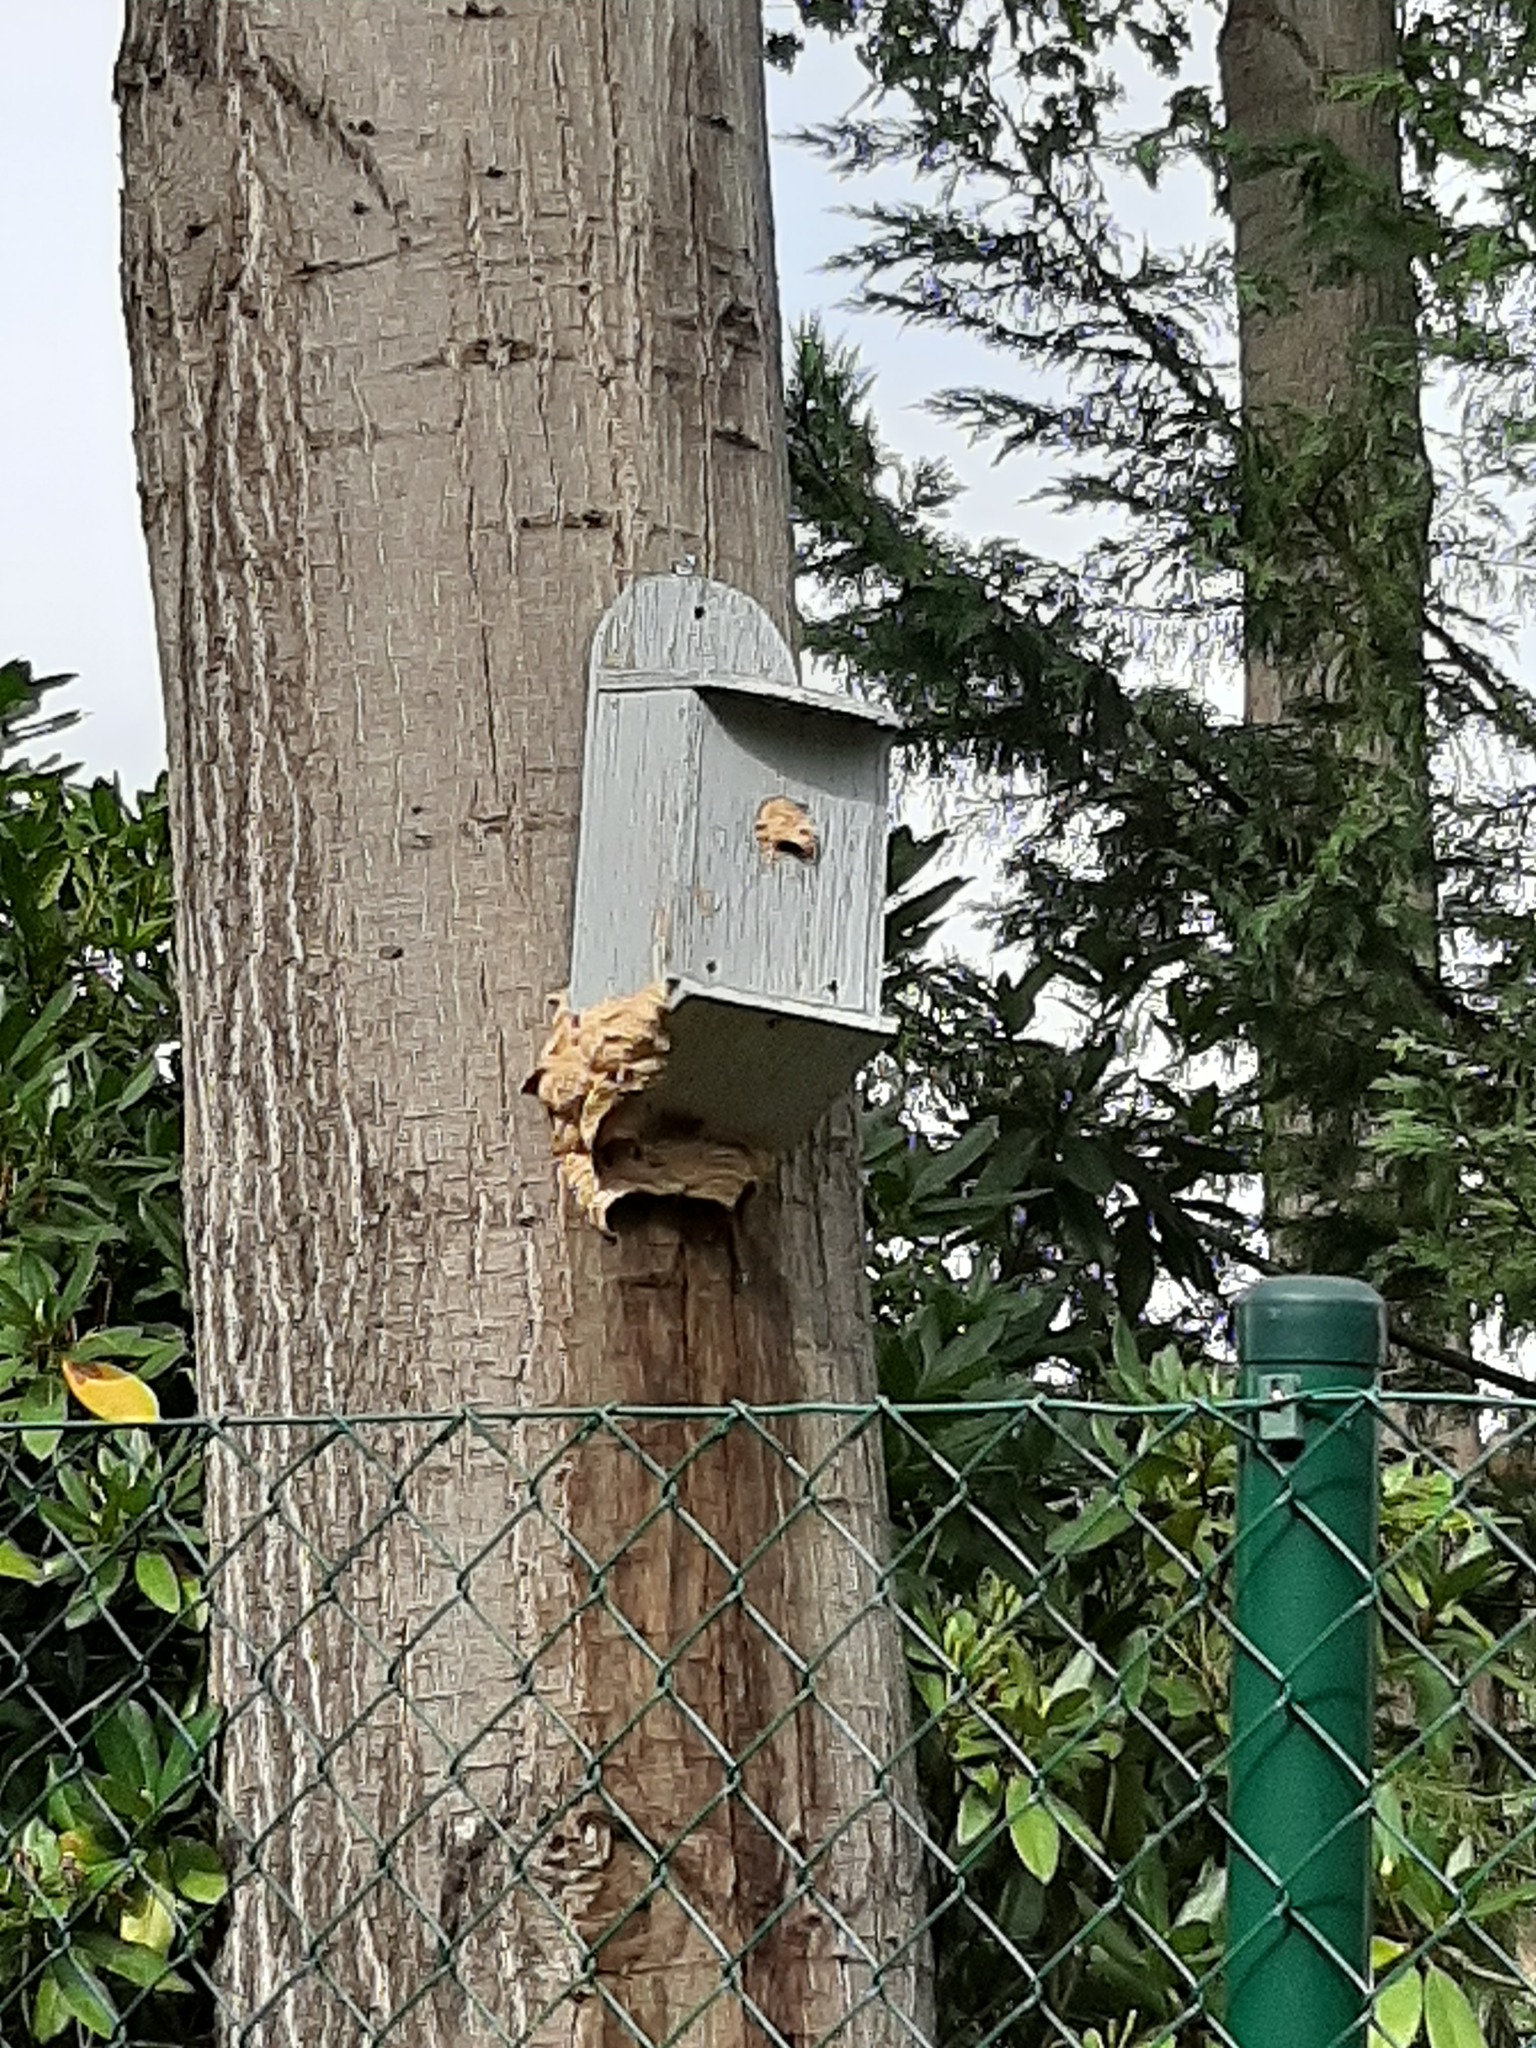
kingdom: Animalia
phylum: Arthropoda
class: Insecta
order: Hymenoptera
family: Vespidae
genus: Vespa
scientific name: Vespa crabro
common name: Hornet
